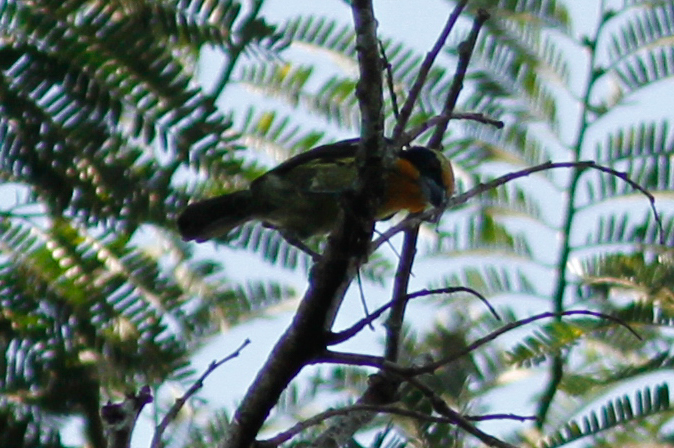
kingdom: Animalia
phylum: Chordata
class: Aves
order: Piciformes
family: Capitonidae
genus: Capito
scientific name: Capito auratus
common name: Gilded barbet
